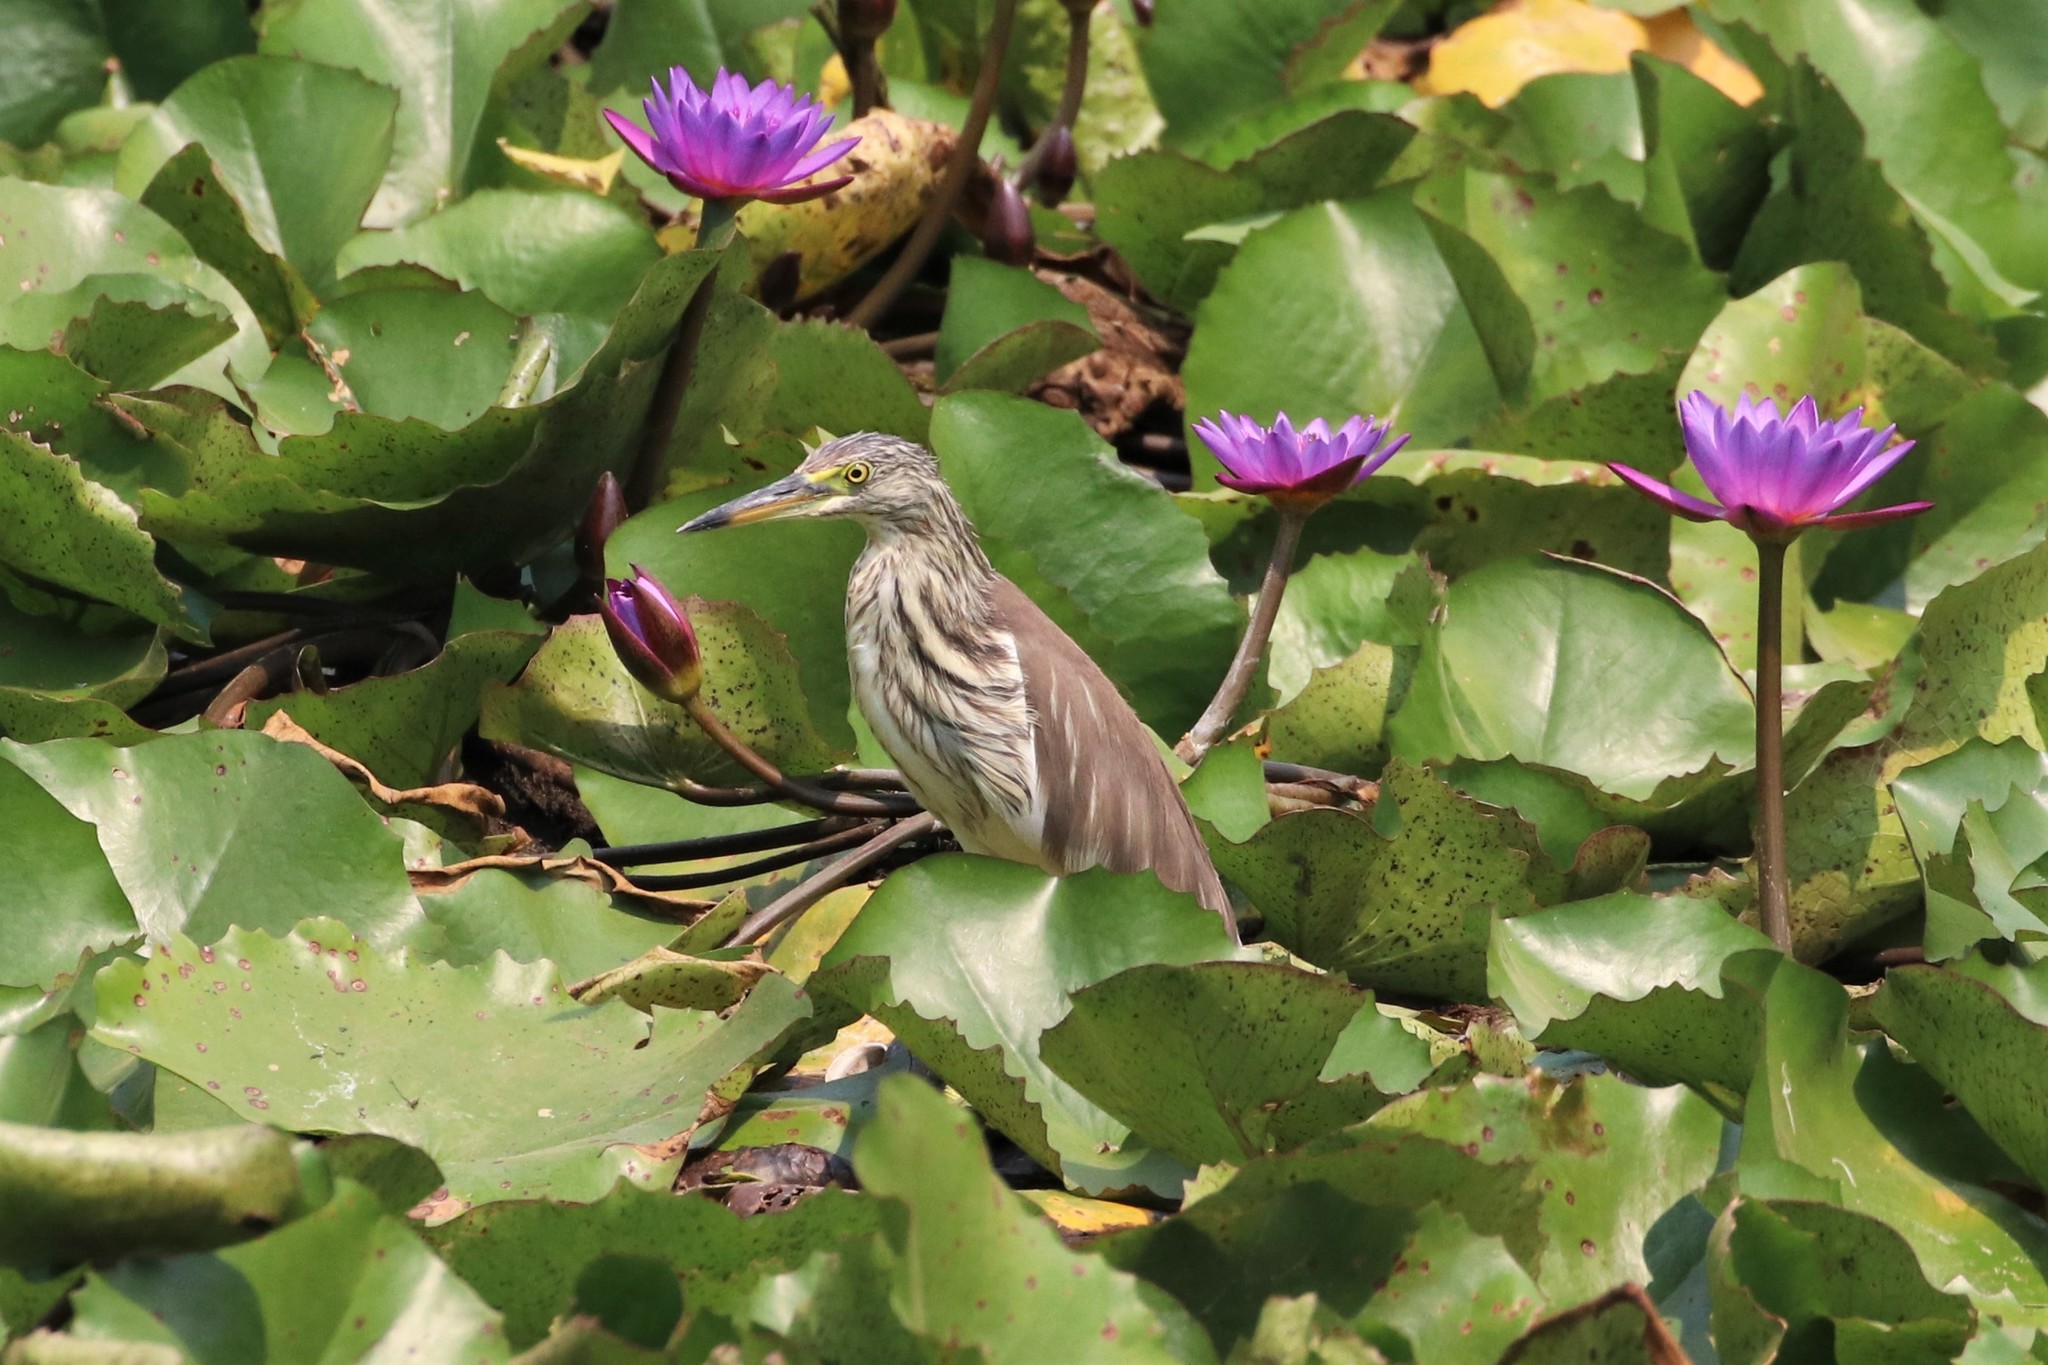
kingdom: Animalia
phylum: Chordata
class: Aves
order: Pelecaniformes
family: Ardeidae
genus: Ardeola
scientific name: Ardeola
